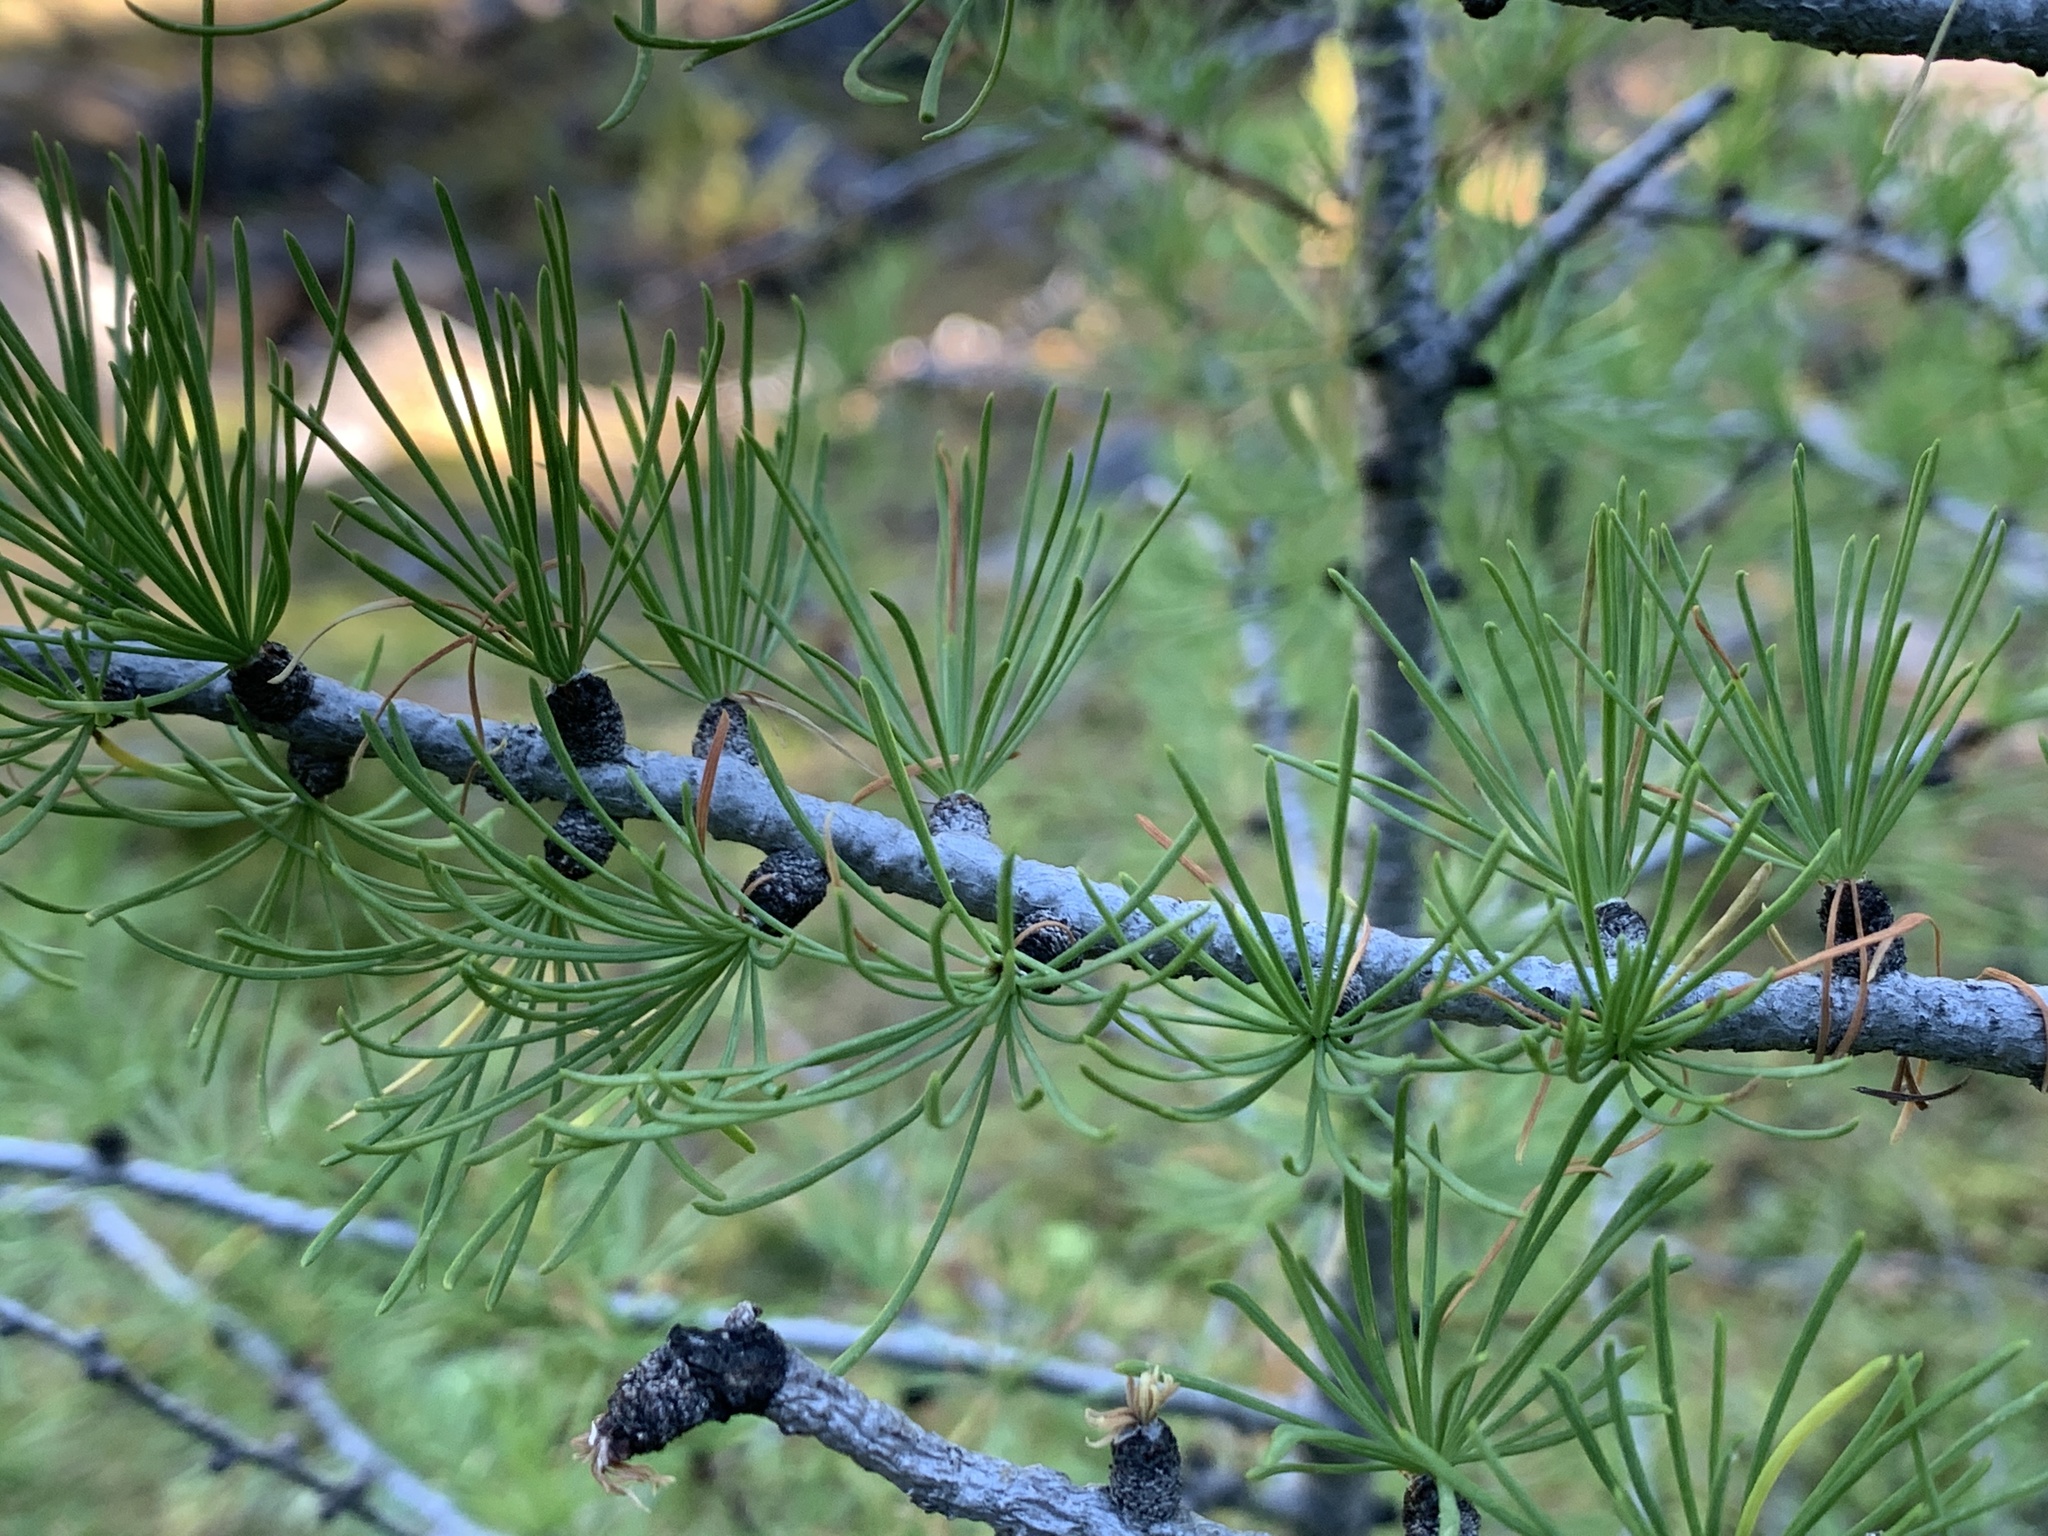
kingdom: Plantae
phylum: Tracheophyta
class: Pinopsida
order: Pinales
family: Pinaceae
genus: Larix
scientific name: Larix lyallii
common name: Alpine larch
